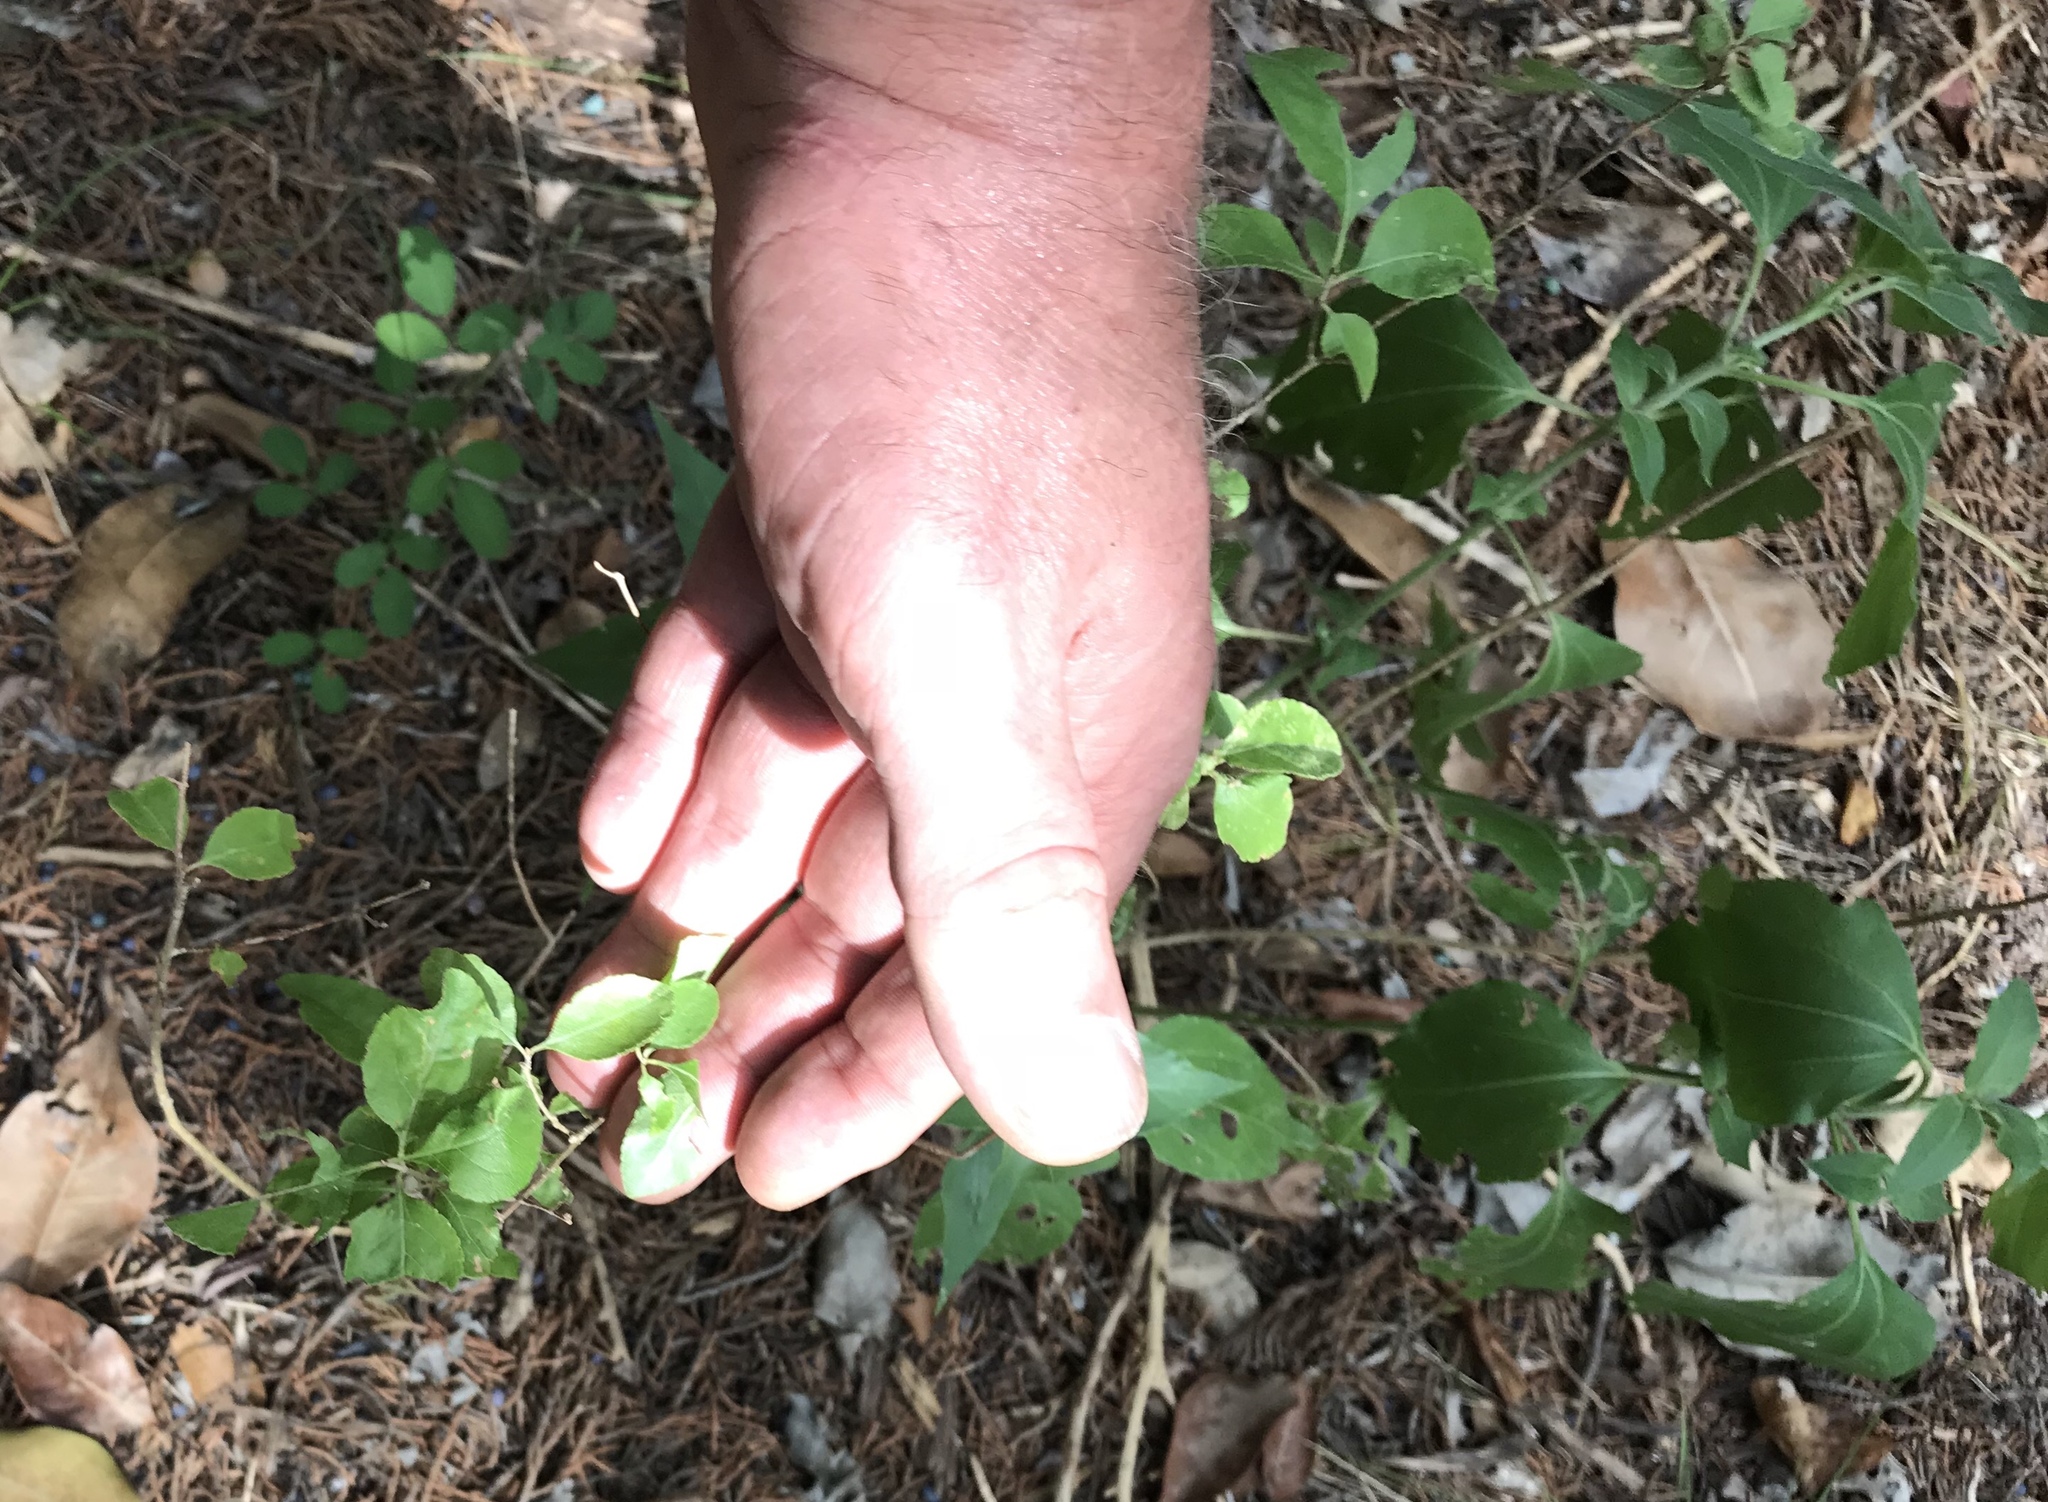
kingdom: Plantae
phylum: Tracheophyta
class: Magnoliopsida
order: Lamiales
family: Oleaceae
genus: Forestiera
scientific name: Forestiera pubescens
